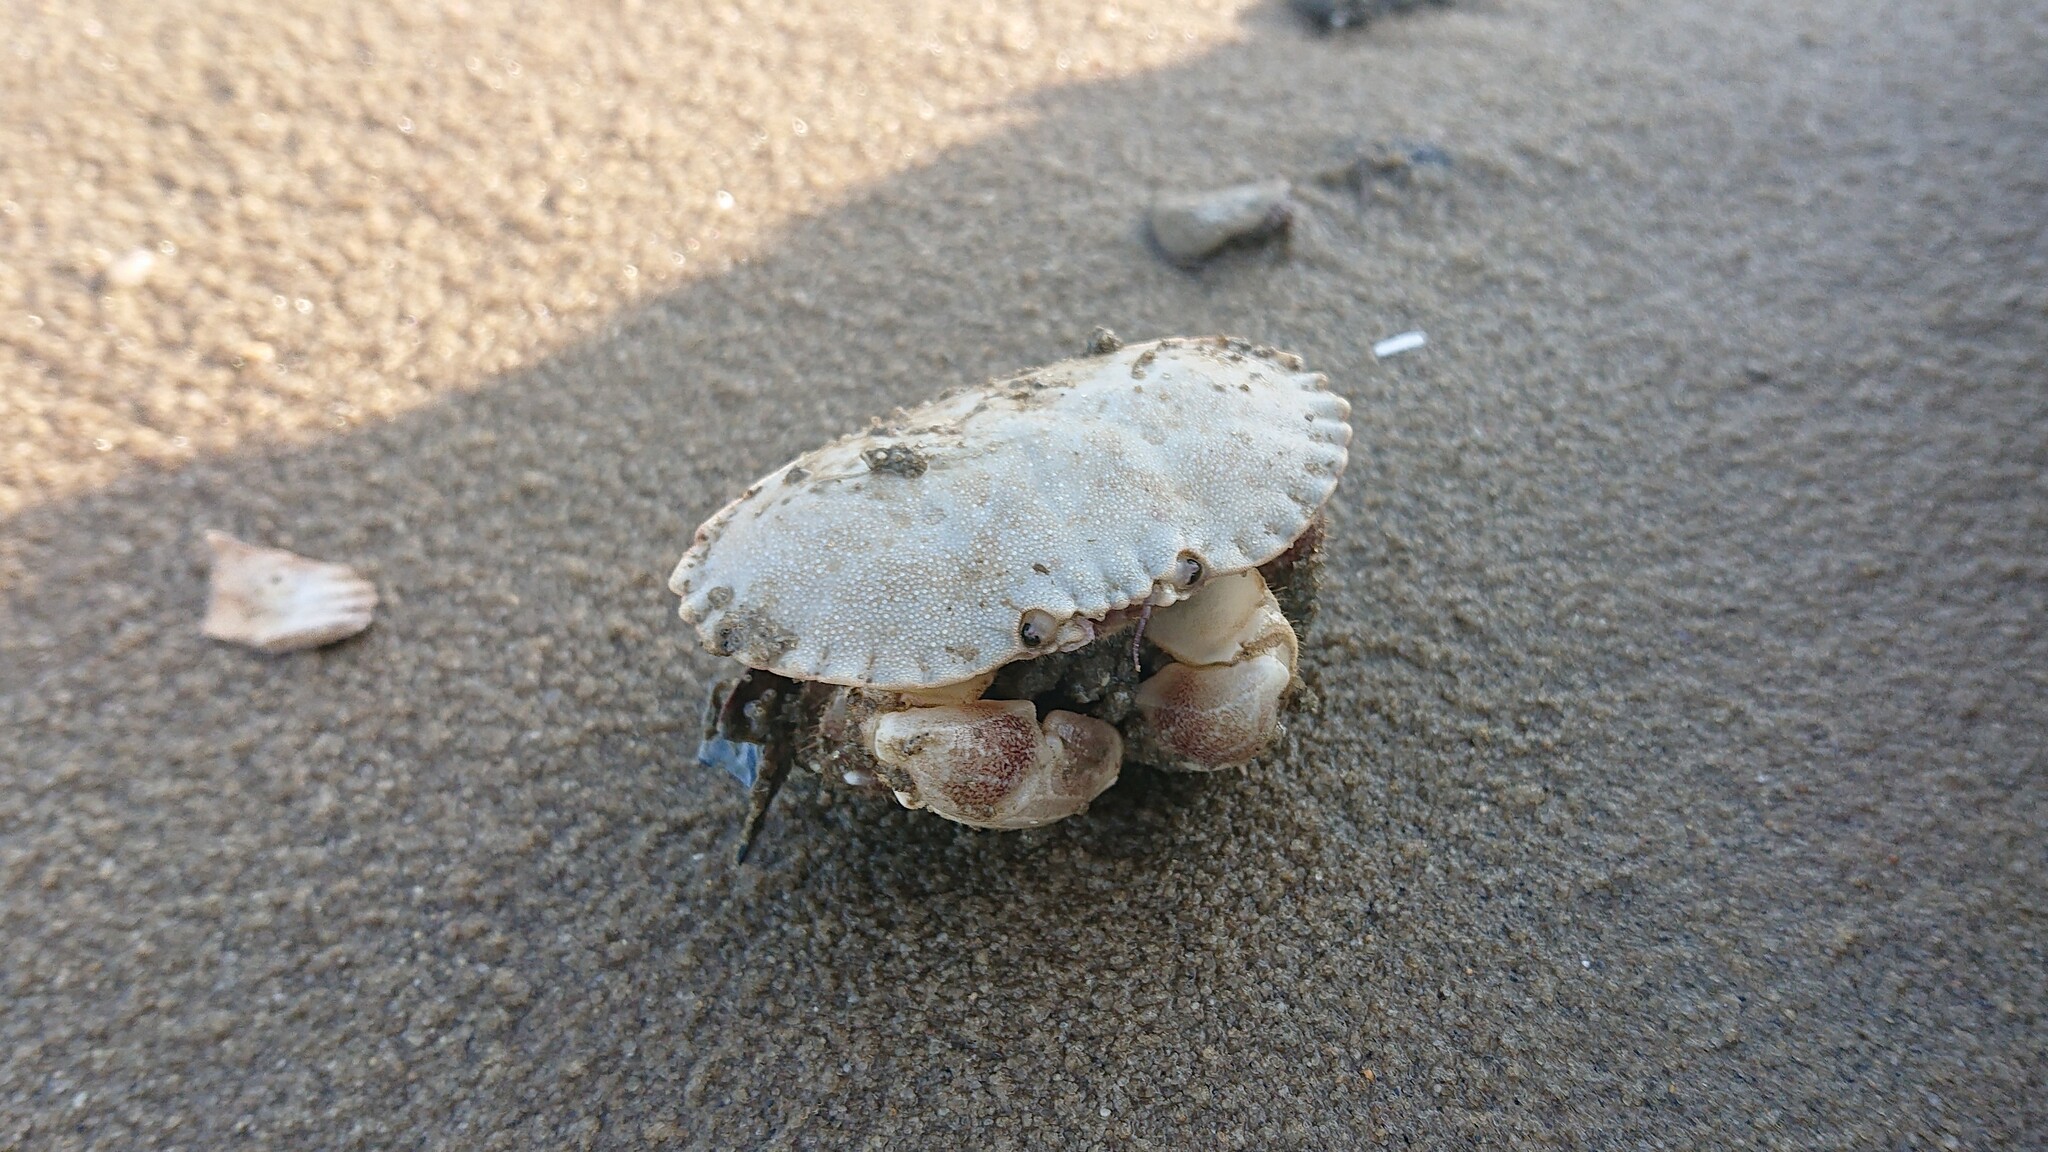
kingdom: Animalia
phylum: Arthropoda
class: Malacostraca
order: Decapoda
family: Cancridae
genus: Cancer
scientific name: Cancer pagurus
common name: Edible crab
